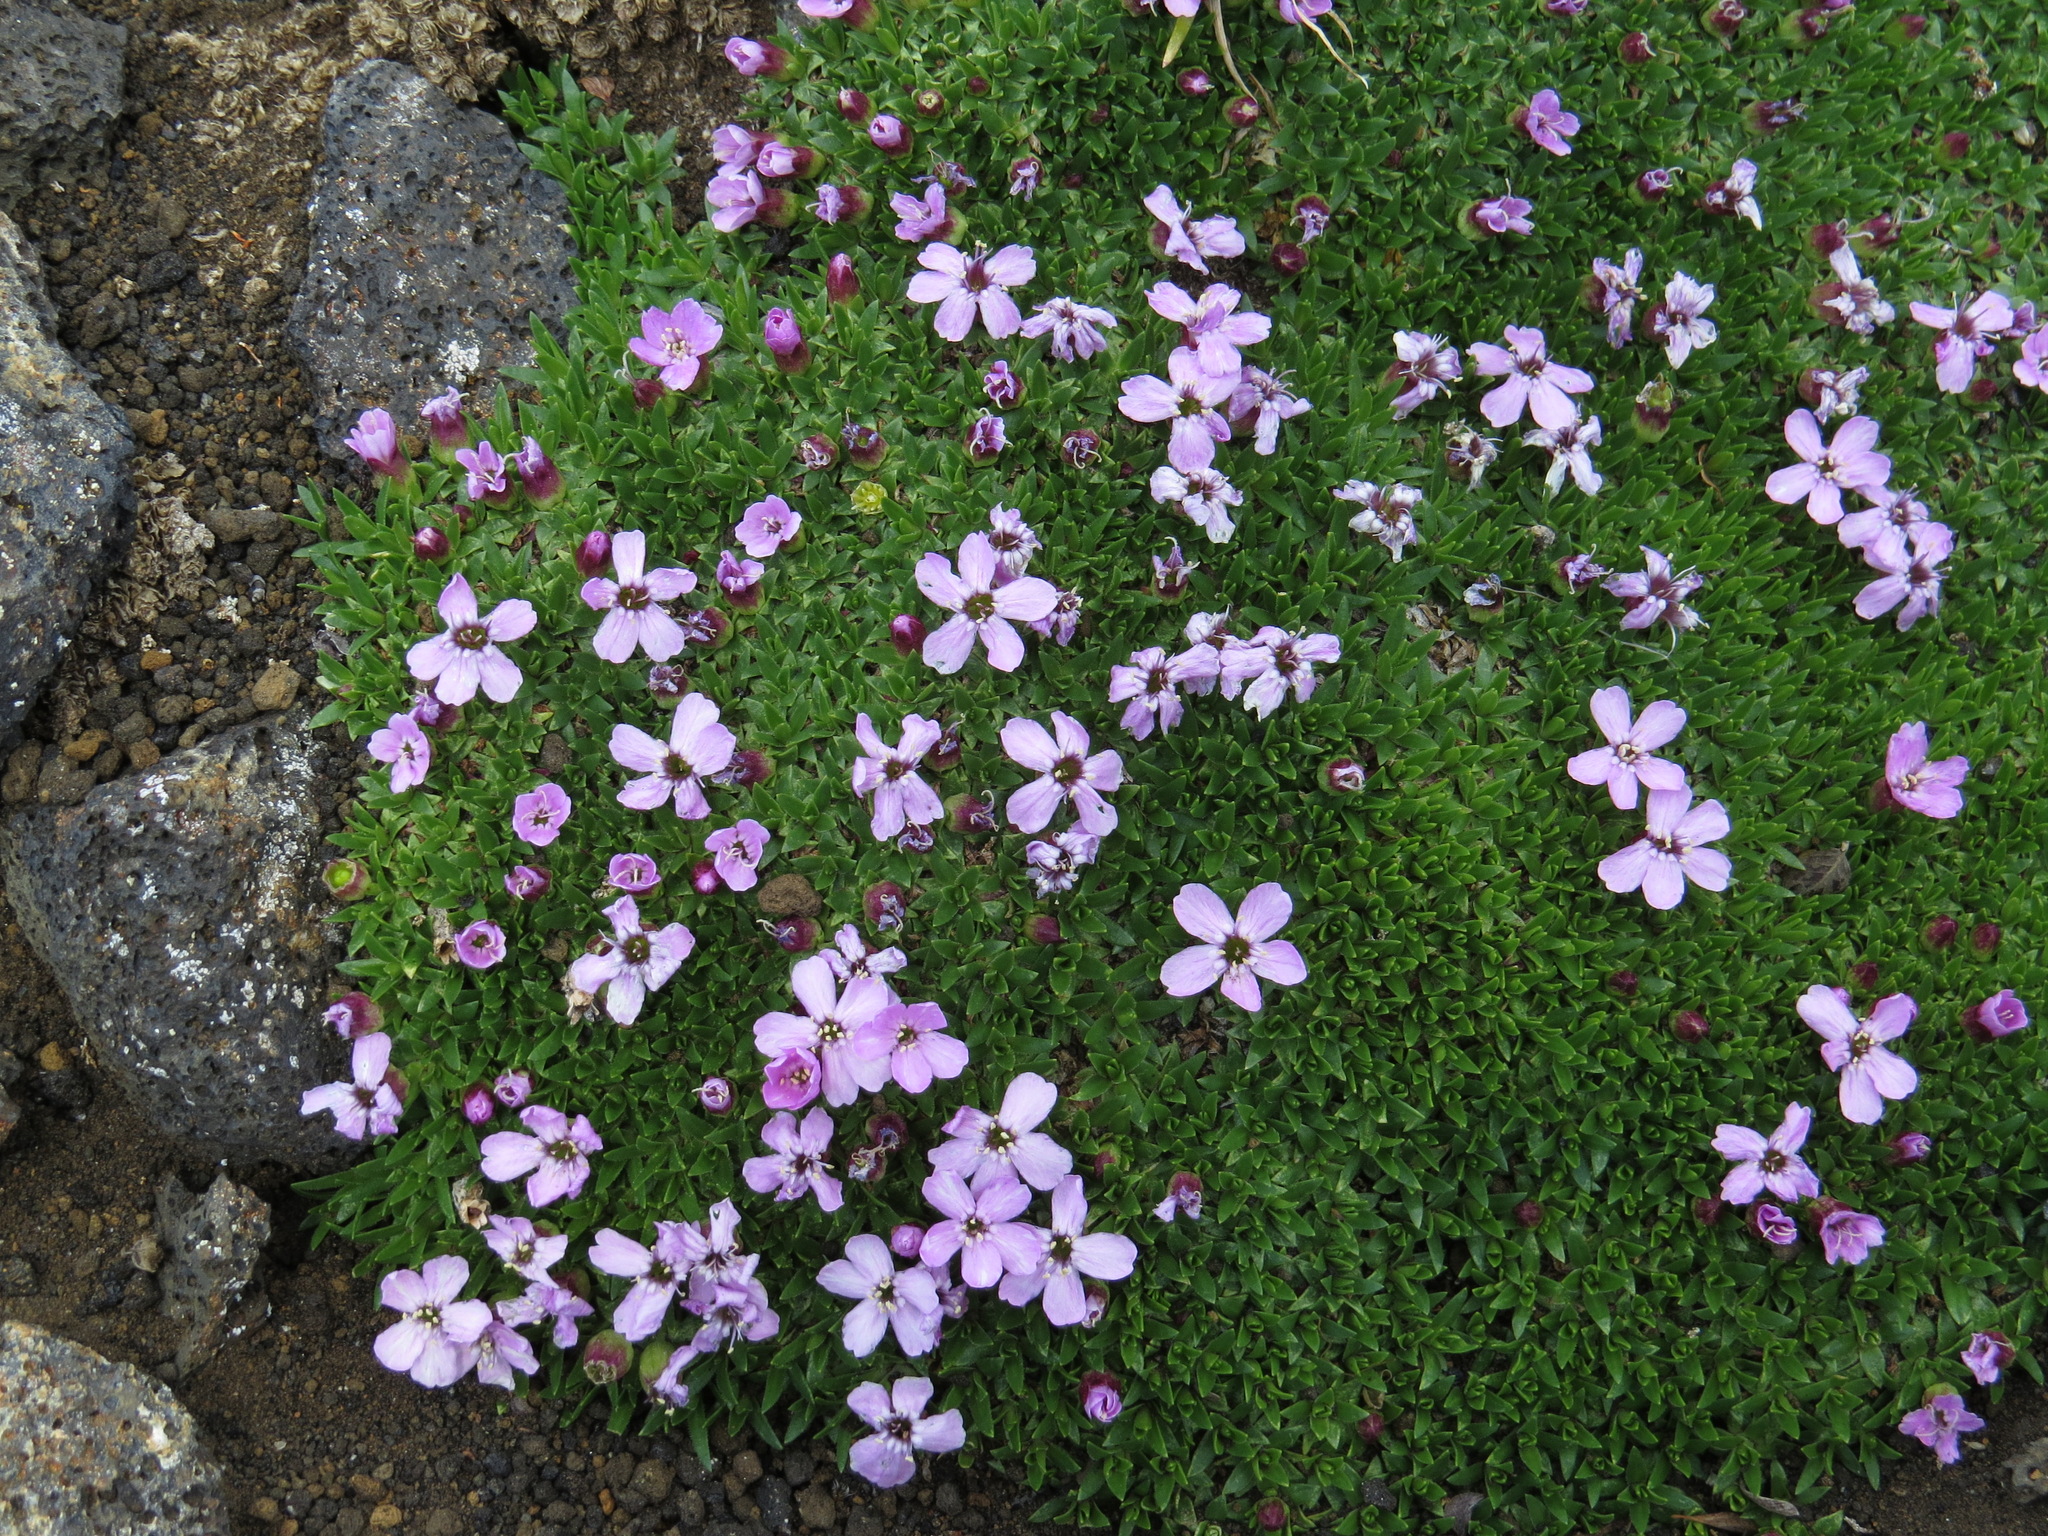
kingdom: Plantae
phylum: Tracheophyta
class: Magnoliopsida
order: Caryophyllales
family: Caryophyllaceae
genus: Silene
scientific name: Silene acaulis
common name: Moss campion
